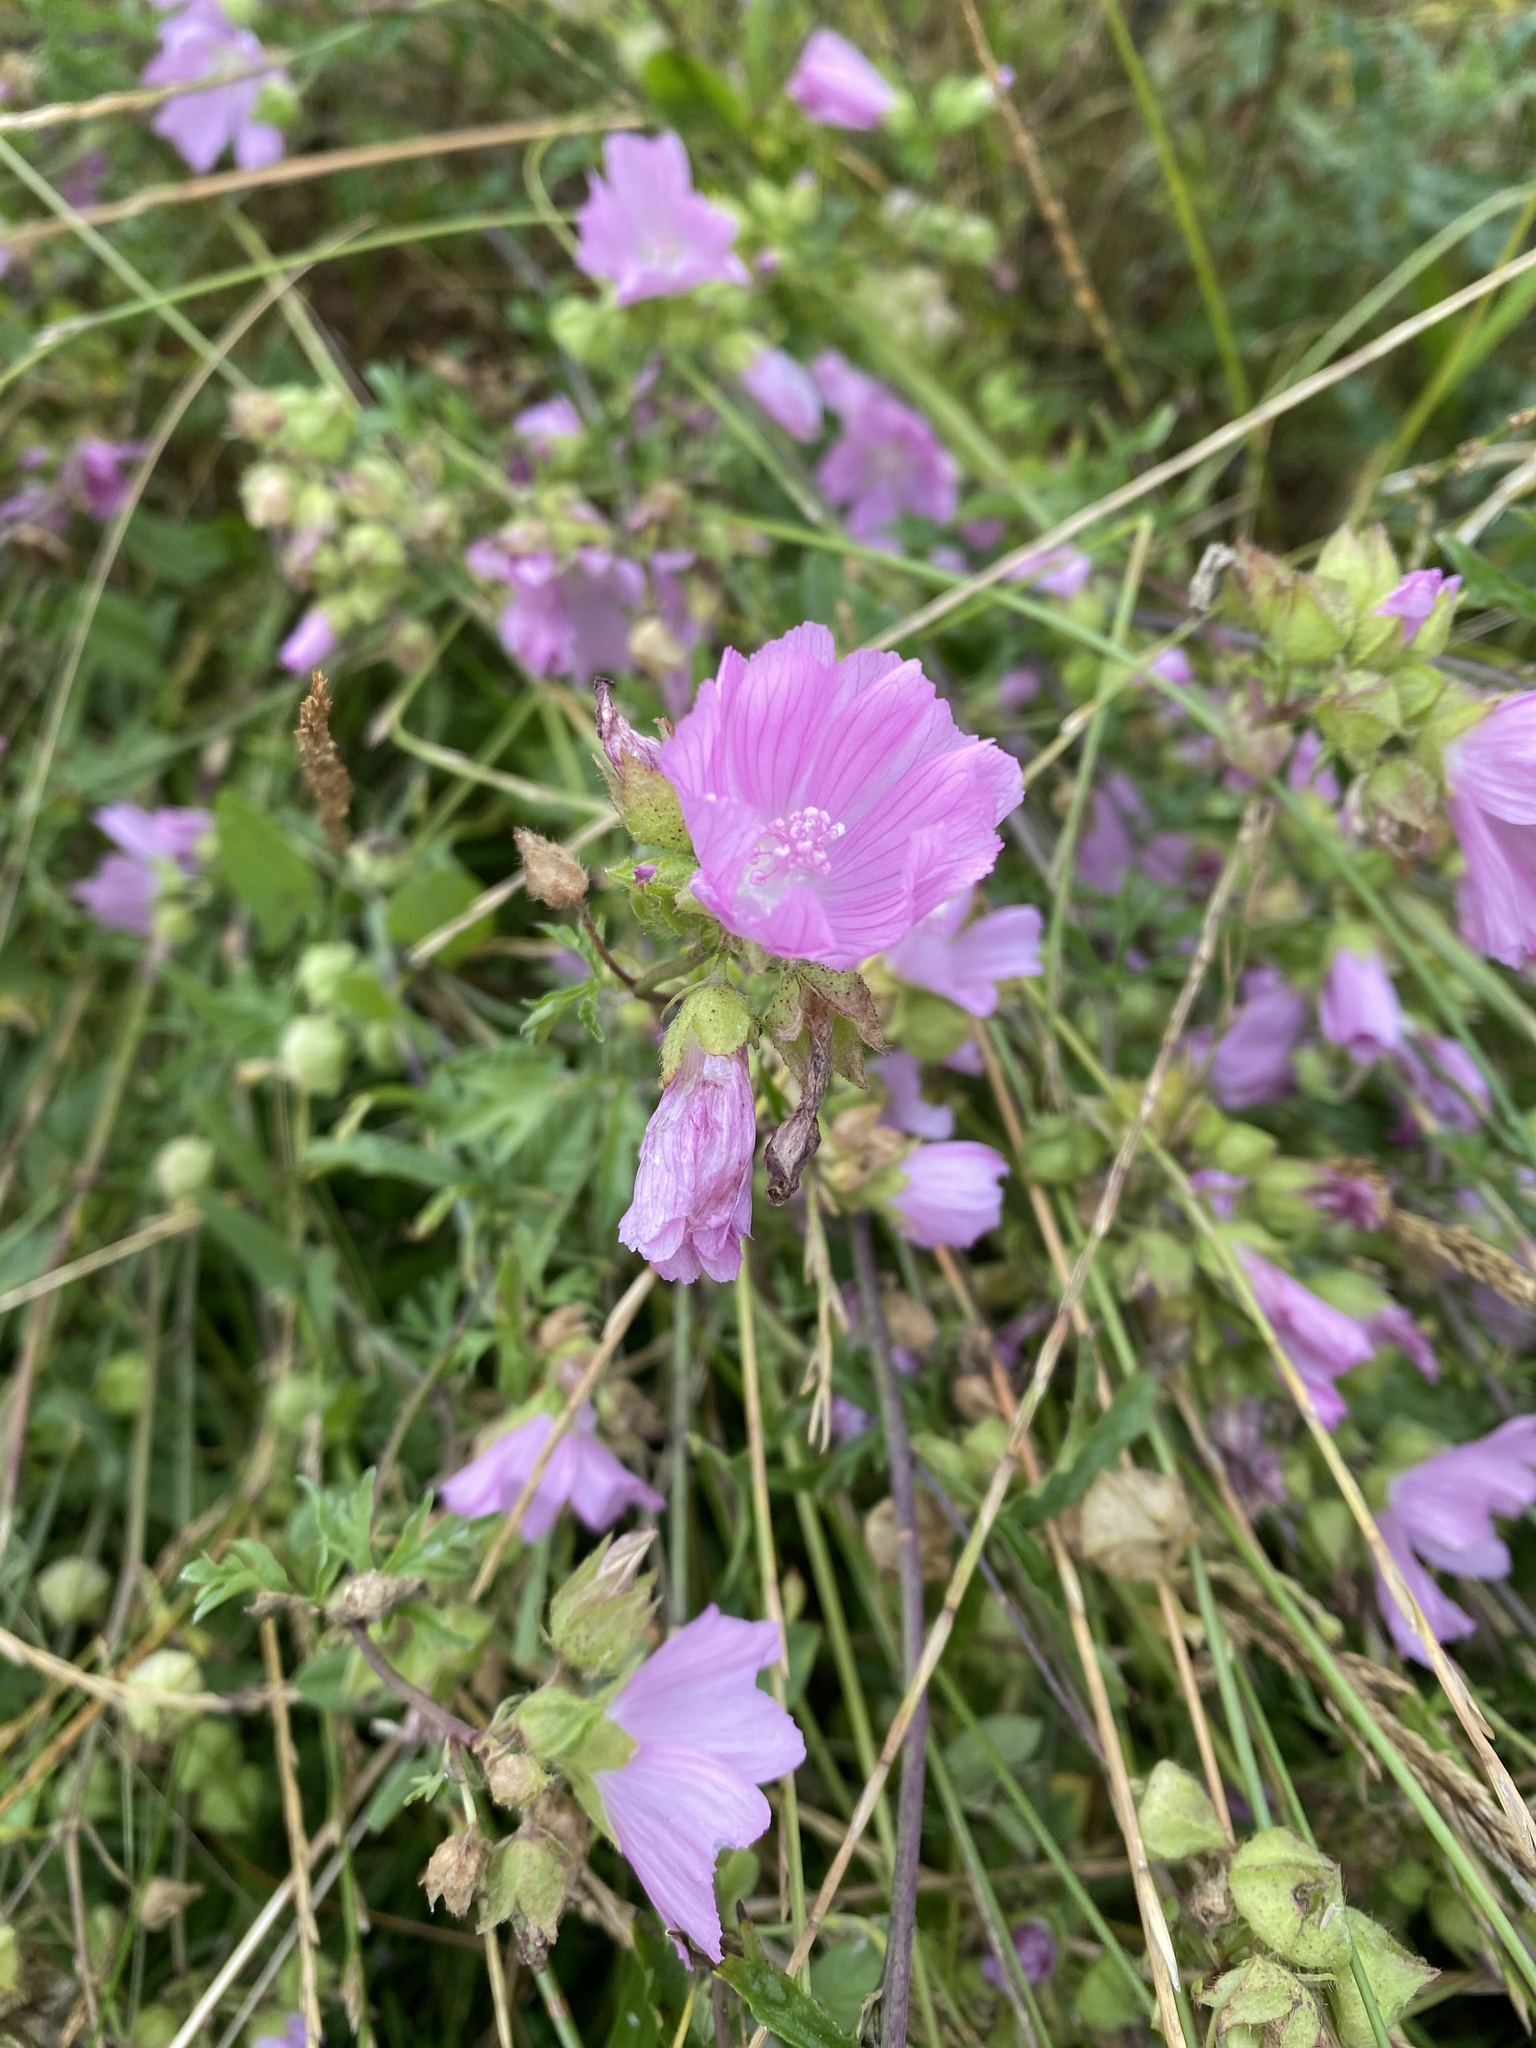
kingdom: Plantae
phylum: Tracheophyta
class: Magnoliopsida
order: Malvales
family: Malvaceae
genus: Malva
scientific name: Malva moschata
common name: Musk mallow
